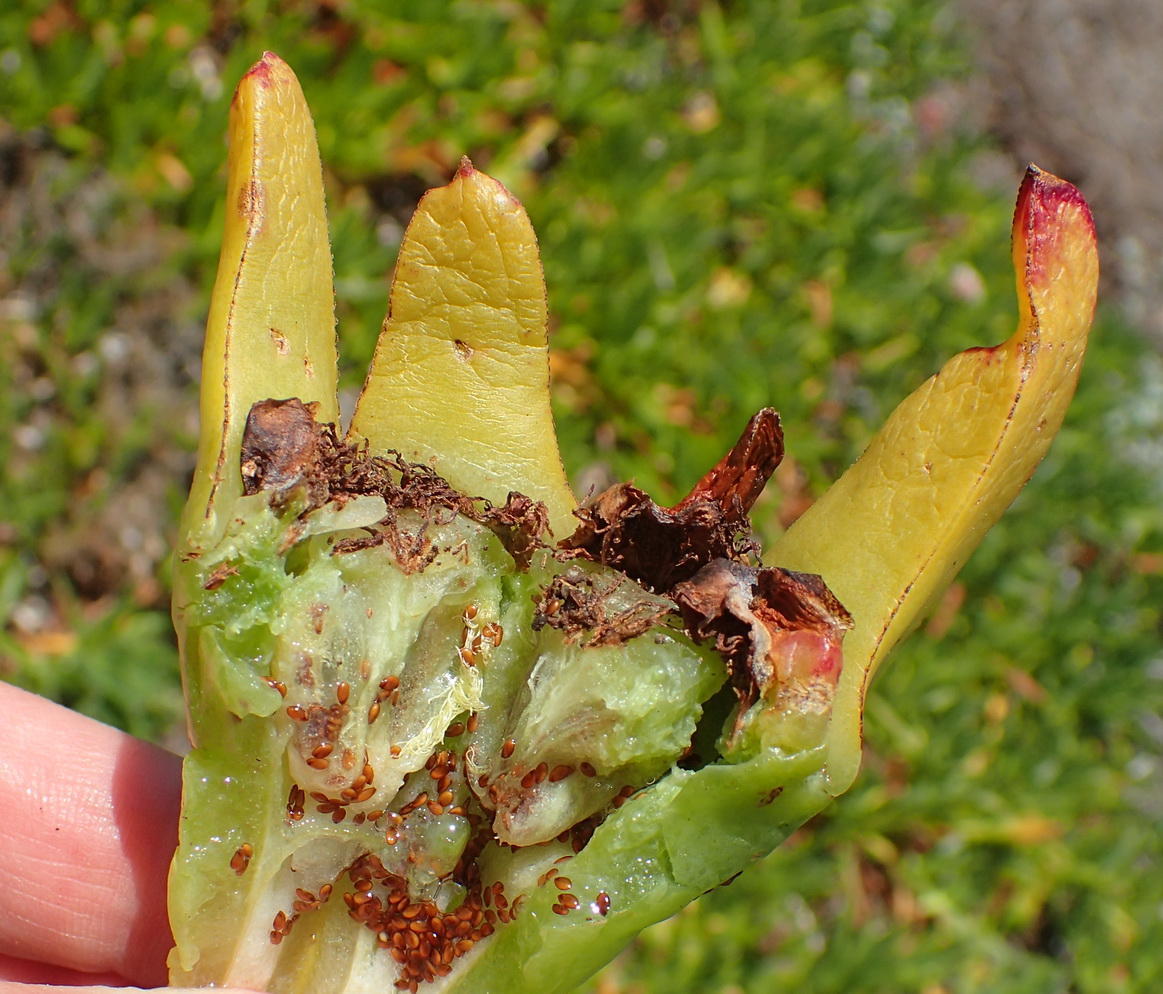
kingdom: Plantae
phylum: Tracheophyta
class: Magnoliopsida
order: Caryophyllales
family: Aizoaceae
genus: Carpobrotus
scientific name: Carpobrotus edulis
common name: Hottentot-fig
